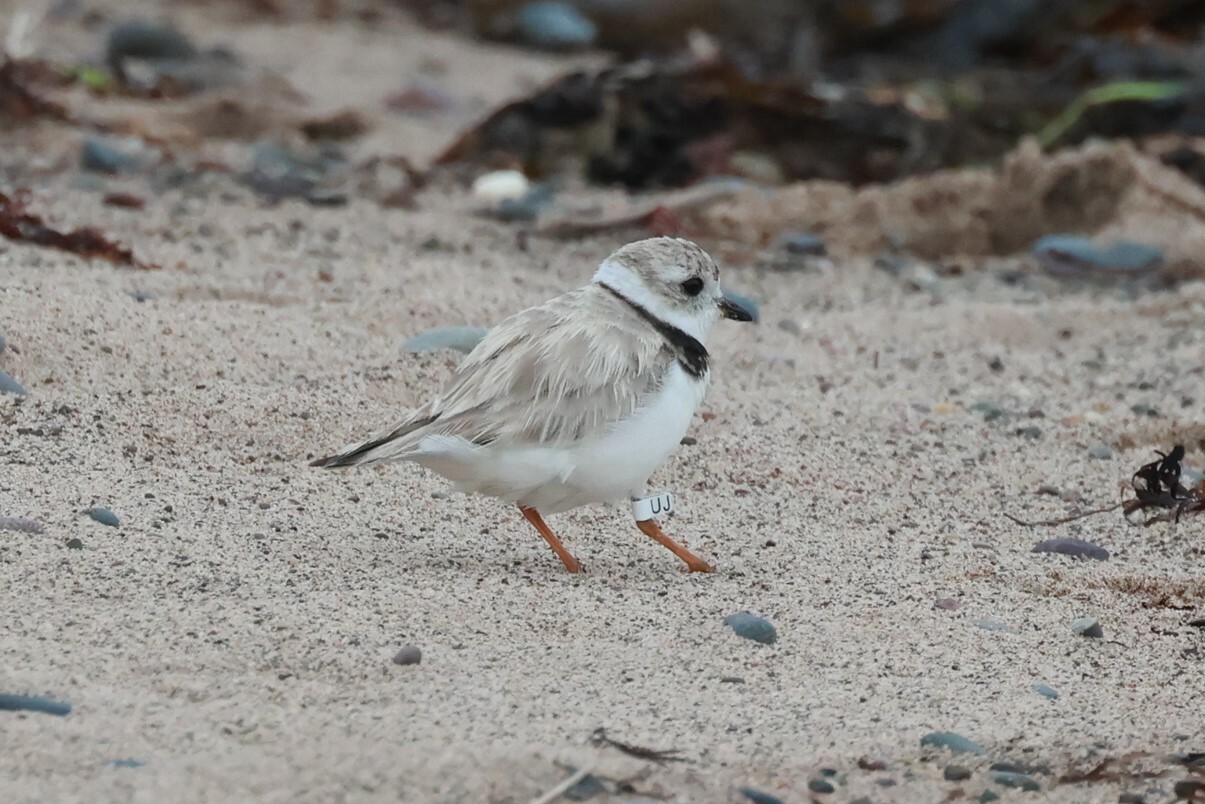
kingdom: Animalia
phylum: Chordata
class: Aves
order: Charadriiformes
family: Charadriidae
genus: Charadrius
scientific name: Charadrius melodus
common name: Piping plover
